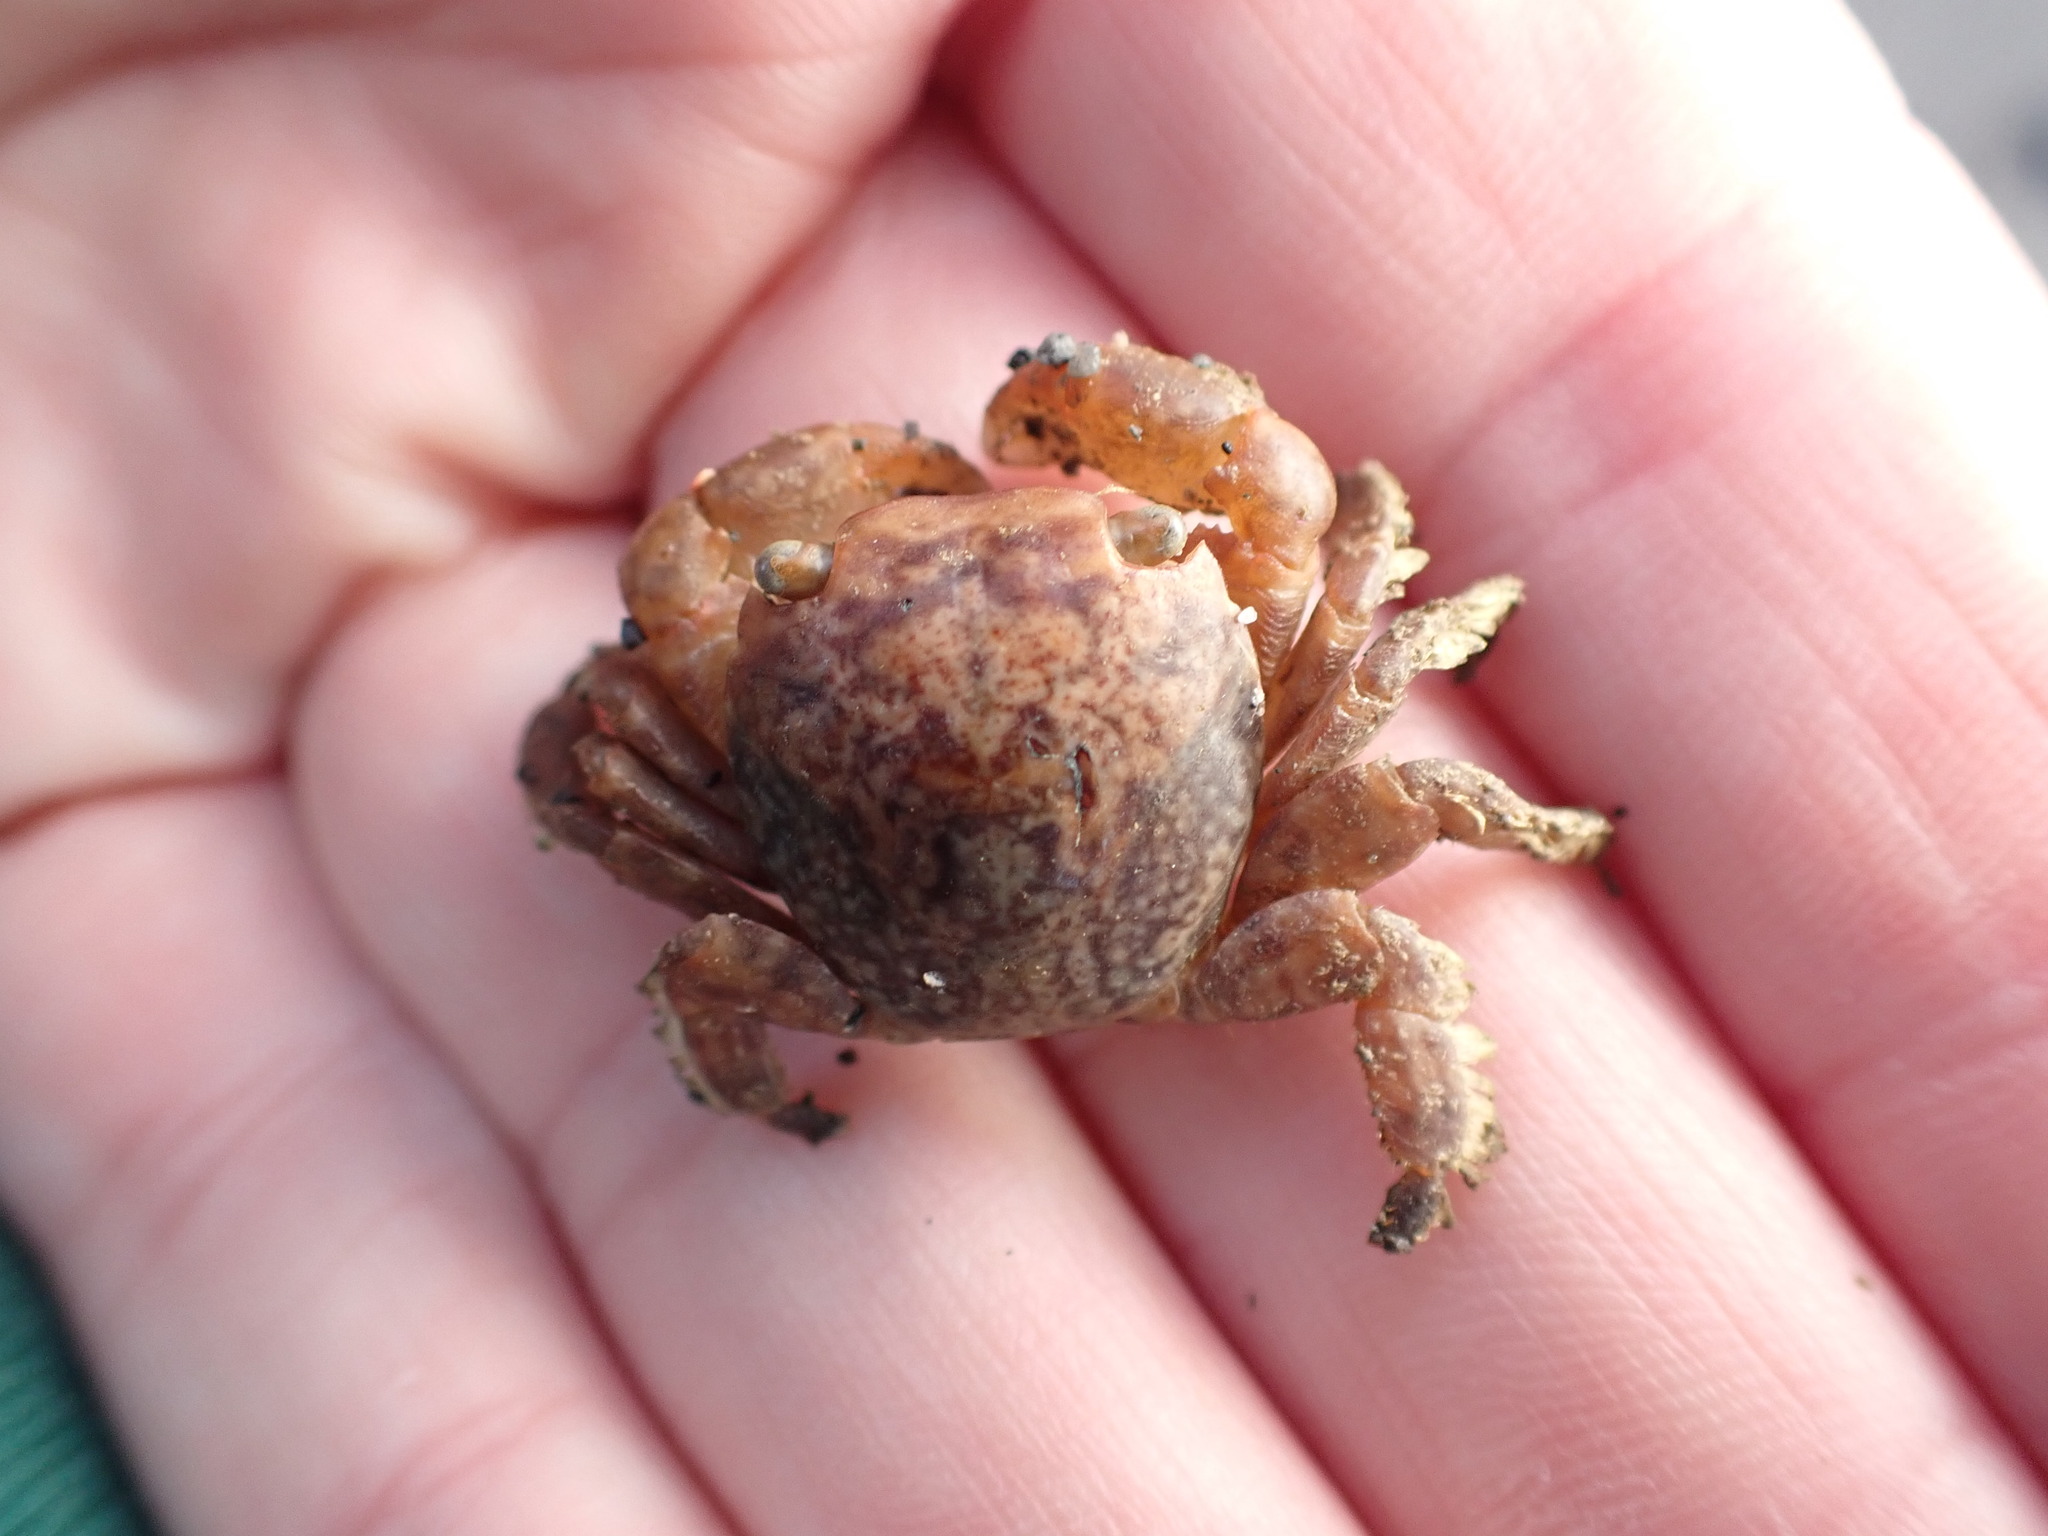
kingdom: Animalia
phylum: Arthropoda
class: Malacostraca
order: Decapoda
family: Grapsidae
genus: Planes
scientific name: Planes minutus
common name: Gulf weed crab
